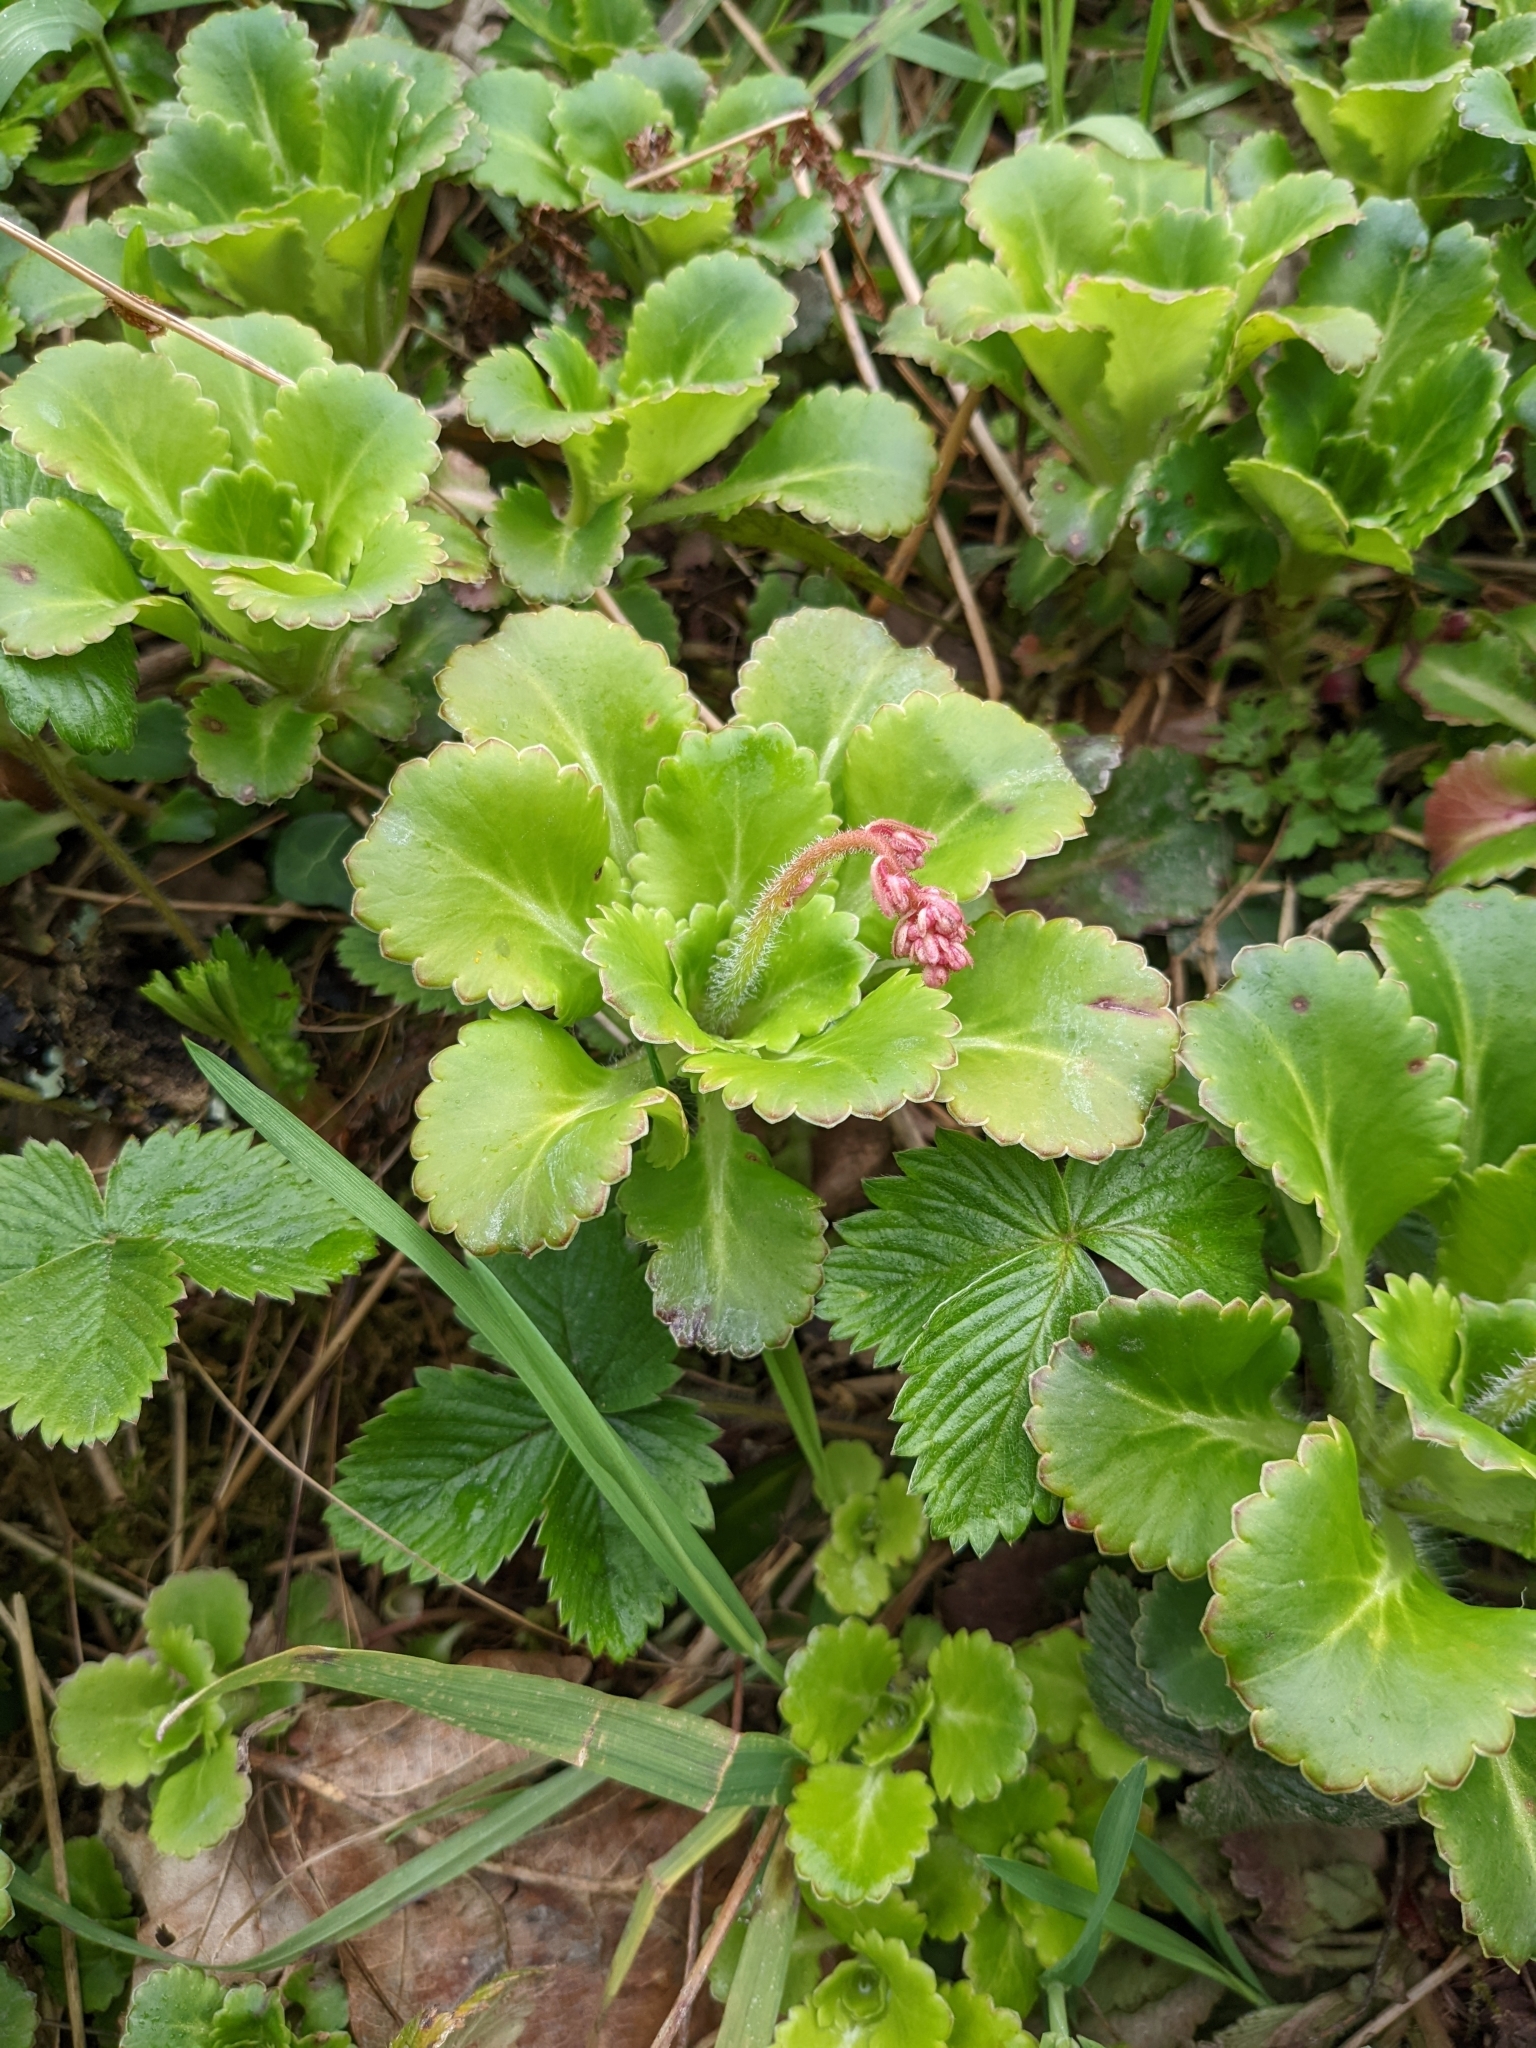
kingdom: Plantae
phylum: Tracheophyta
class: Magnoliopsida
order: Saxifragales
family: Saxifragaceae
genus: Saxifraga
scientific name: Saxifraga urbium
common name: Londonpride
